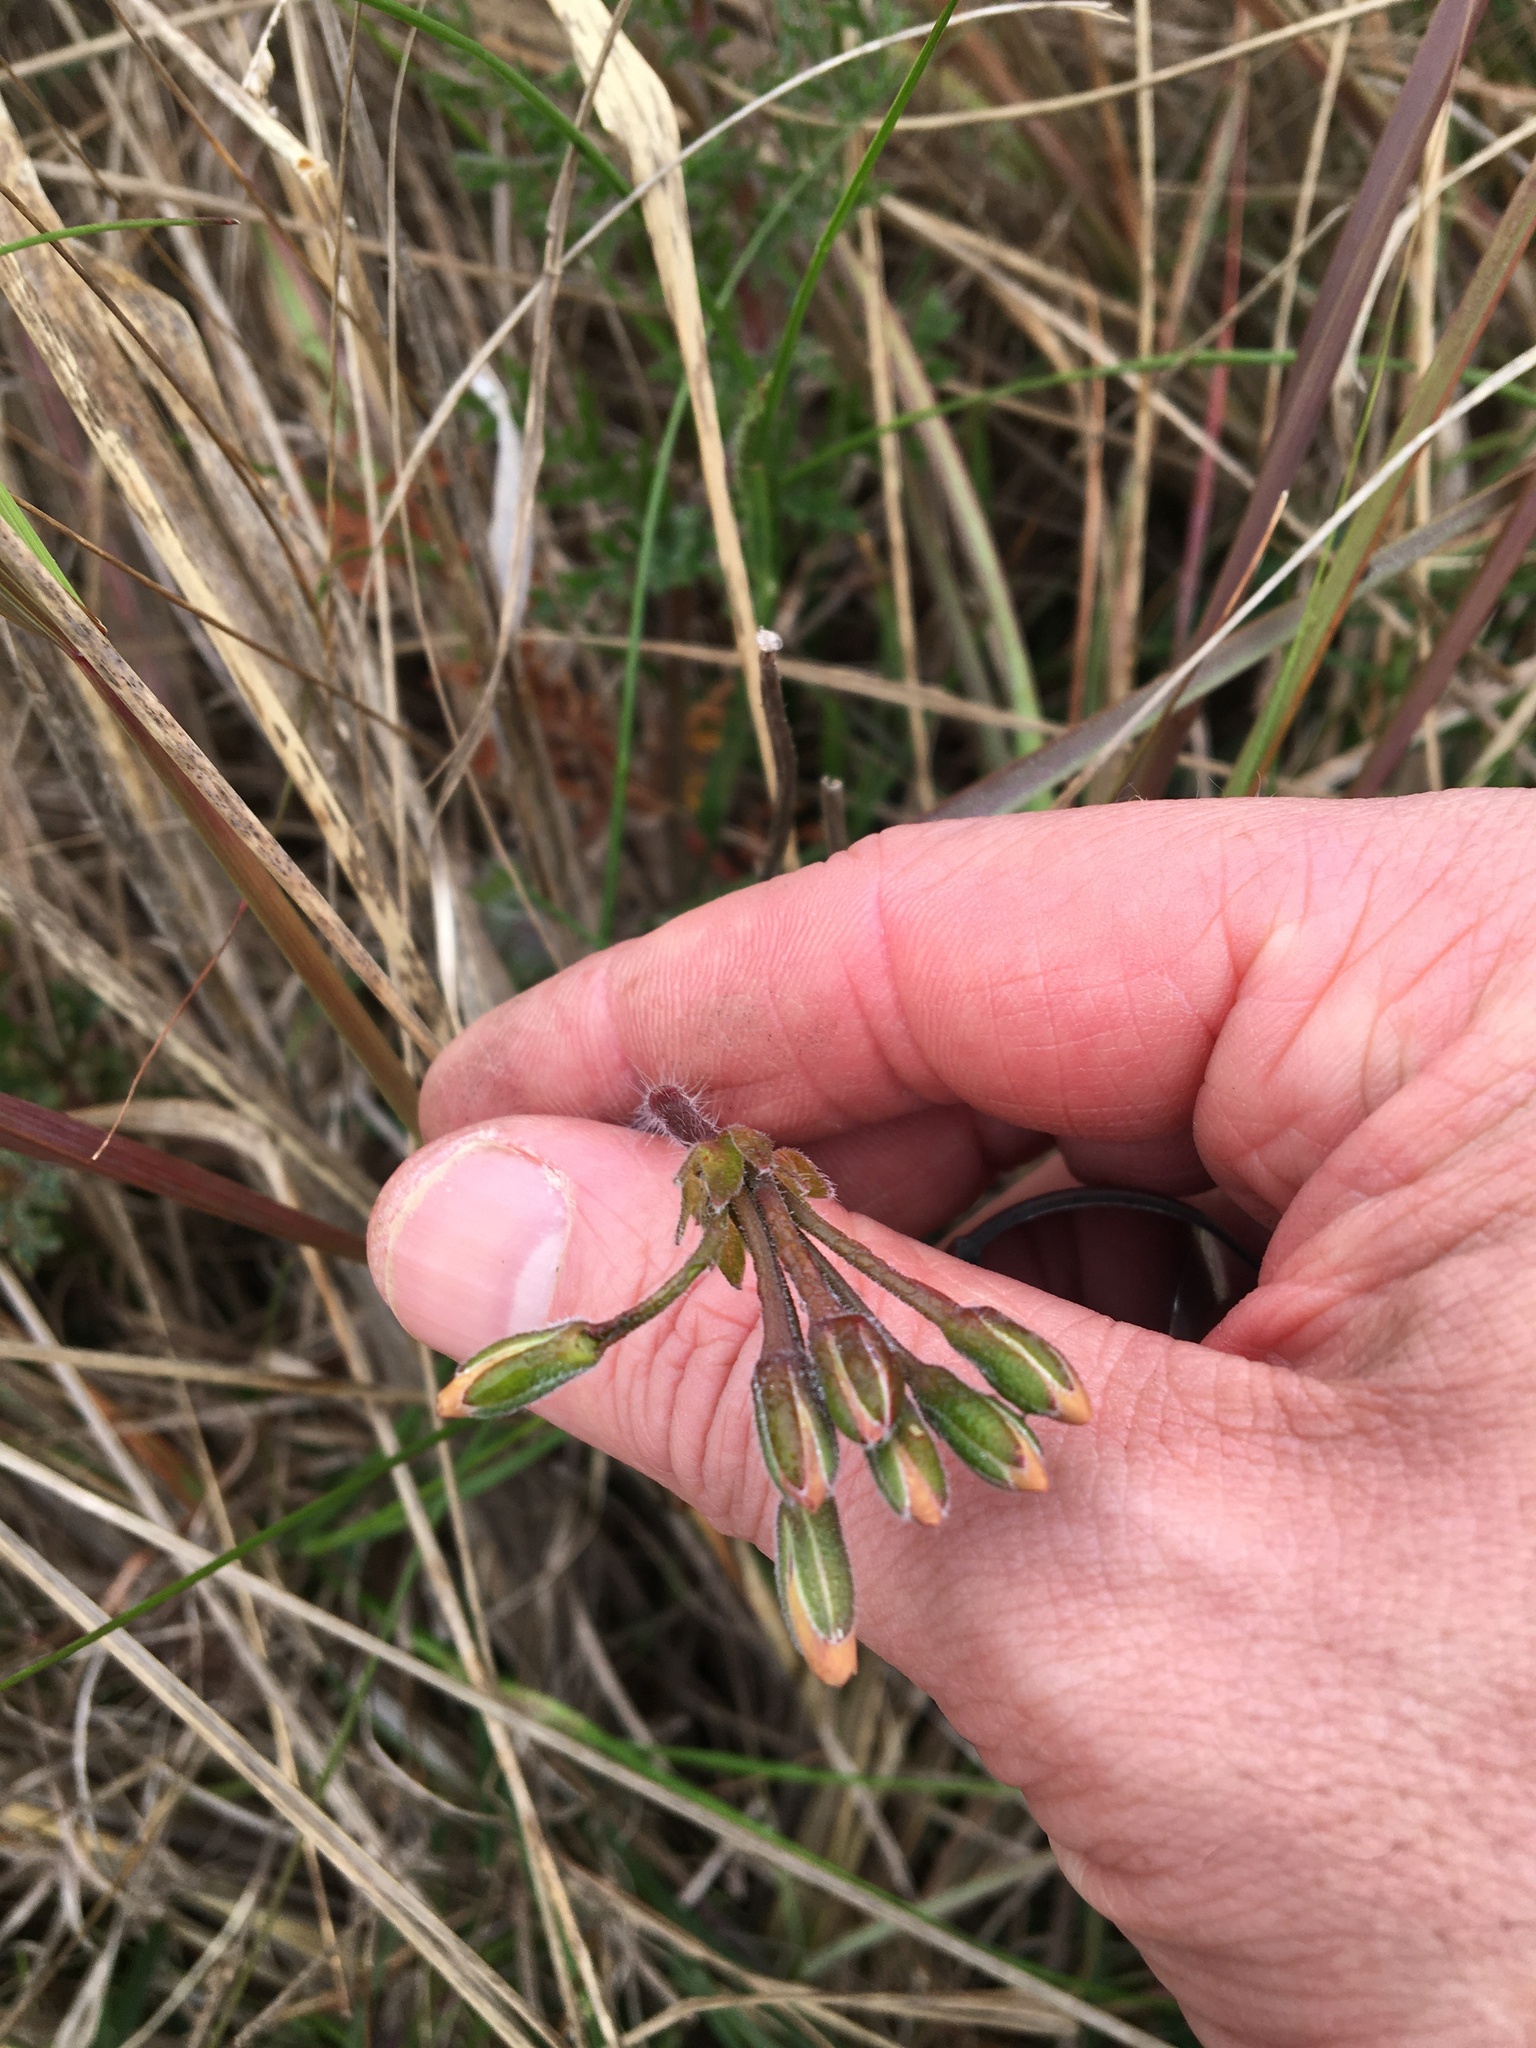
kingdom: Plantae
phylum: Tracheophyta
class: Magnoliopsida
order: Geraniales
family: Geraniaceae
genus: Pelargonium
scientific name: Pelargonium triste
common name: Night-scent pelargonium
